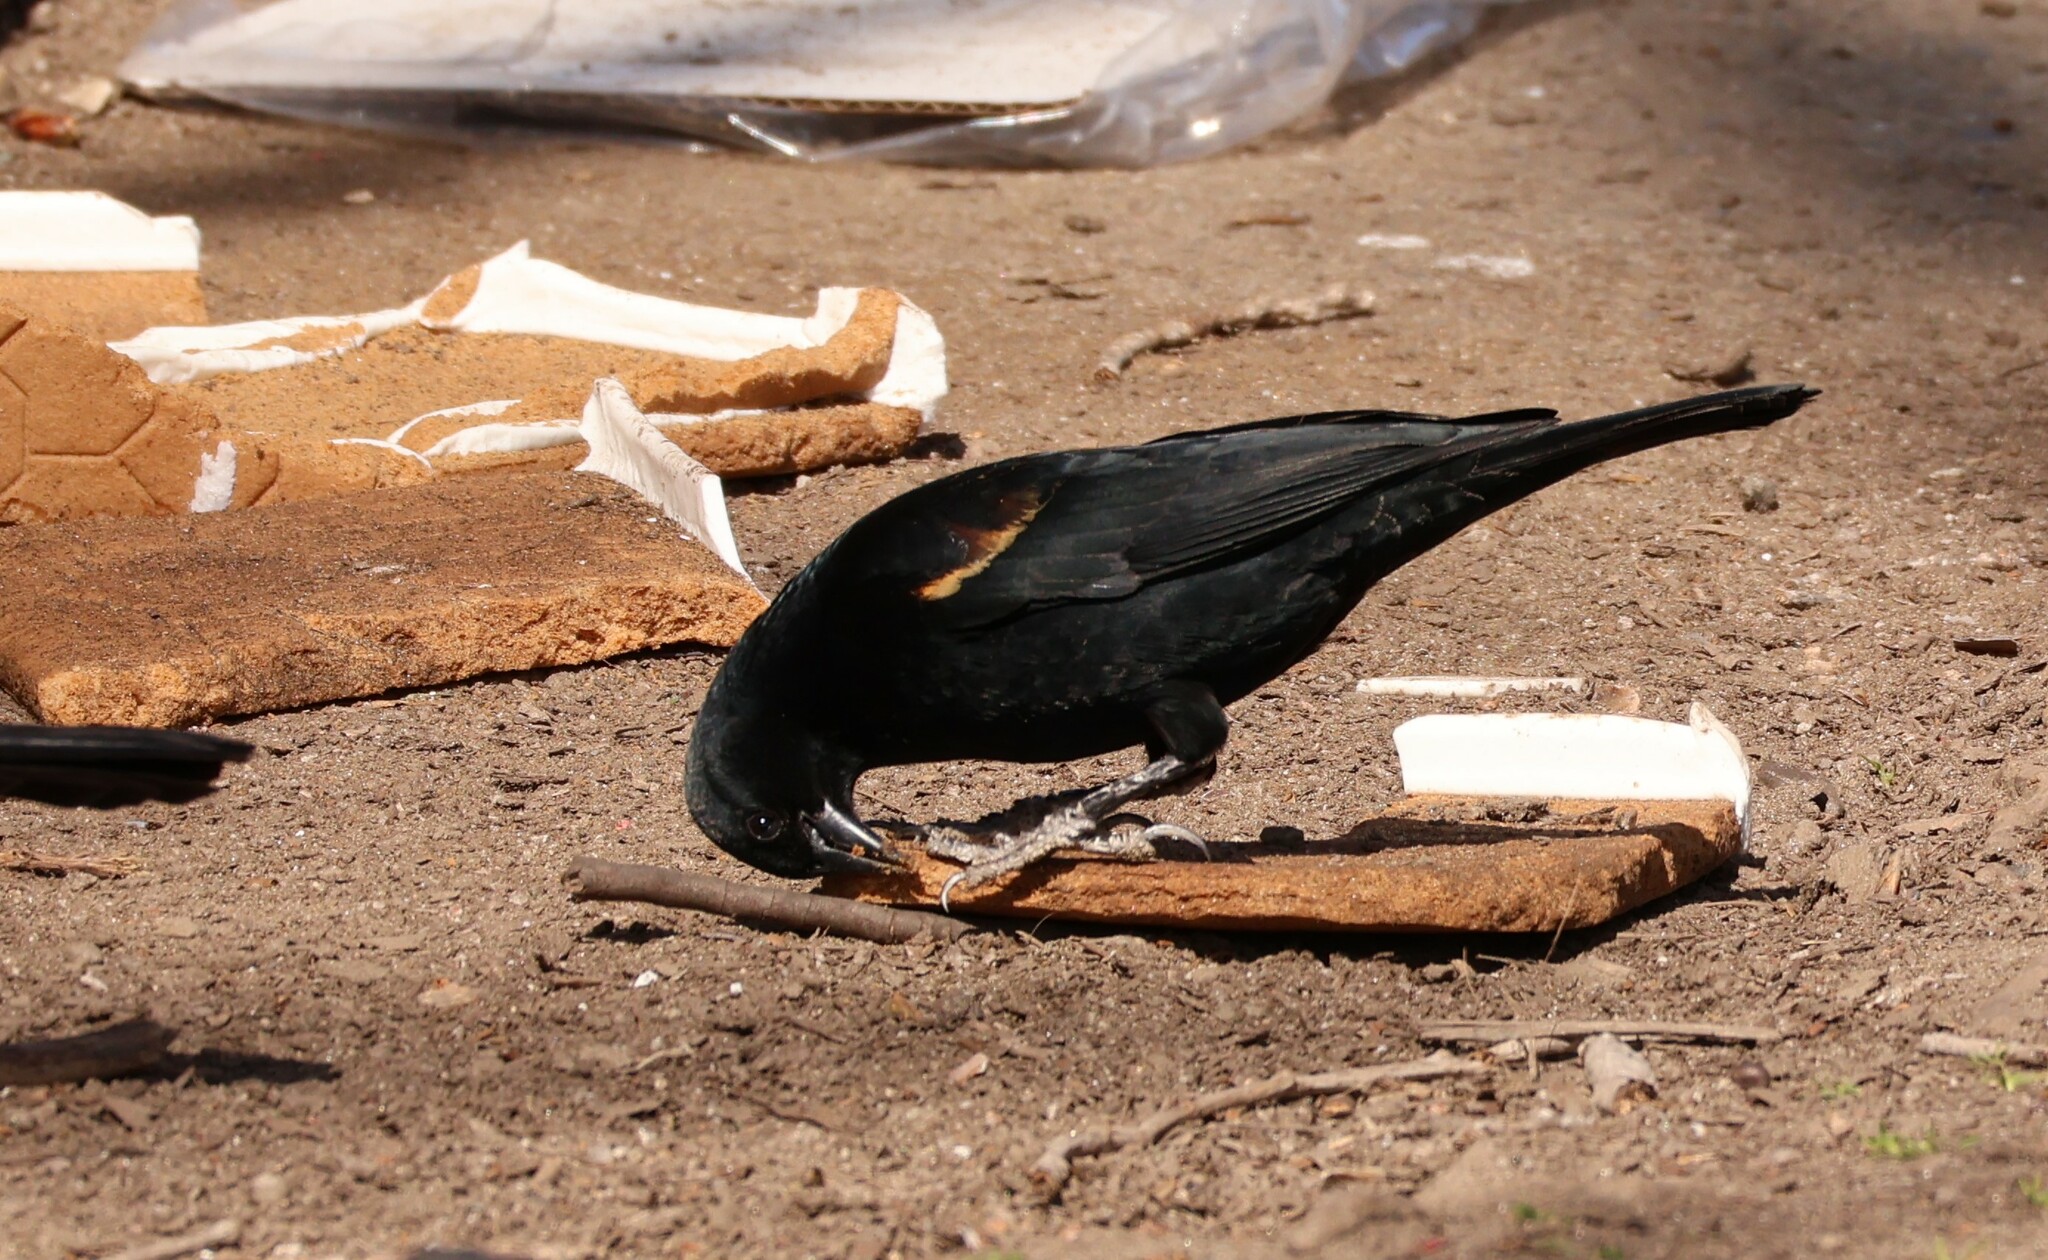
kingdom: Animalia
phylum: Chordata
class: Aves
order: Passeriformes
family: Icteridae
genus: Agelaius
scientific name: Agelaius phoeniceus
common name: Red-winged blackbird
